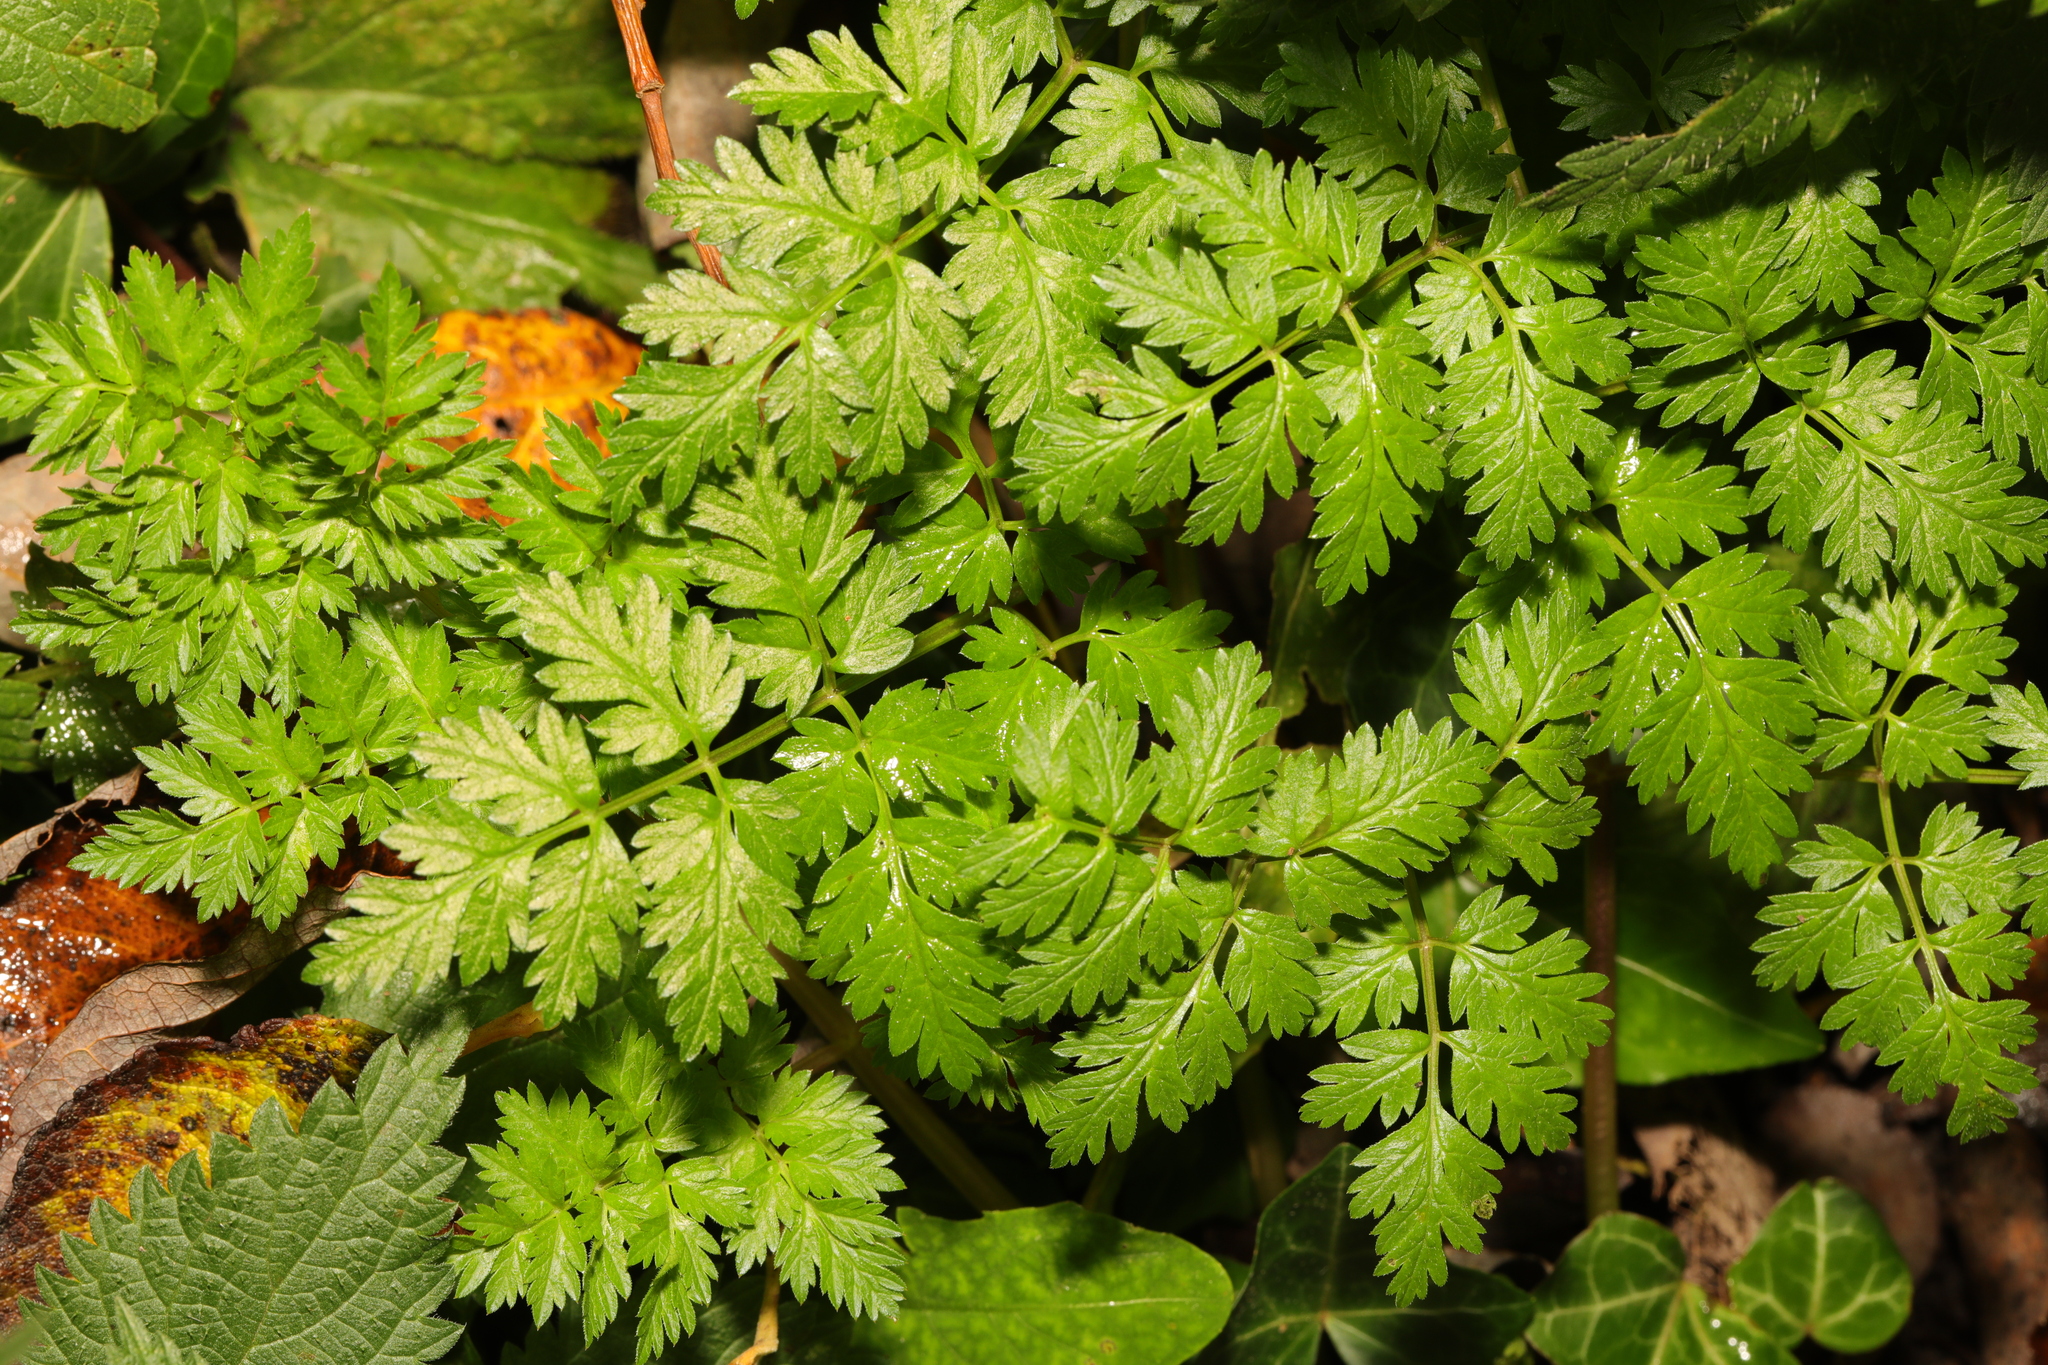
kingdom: Plantae
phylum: Tracheophyta
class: Magnoliopsida
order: Apiales
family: Apiaceae
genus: Anthriscus
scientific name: Anthriscus sylvestris
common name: Cow parsley
